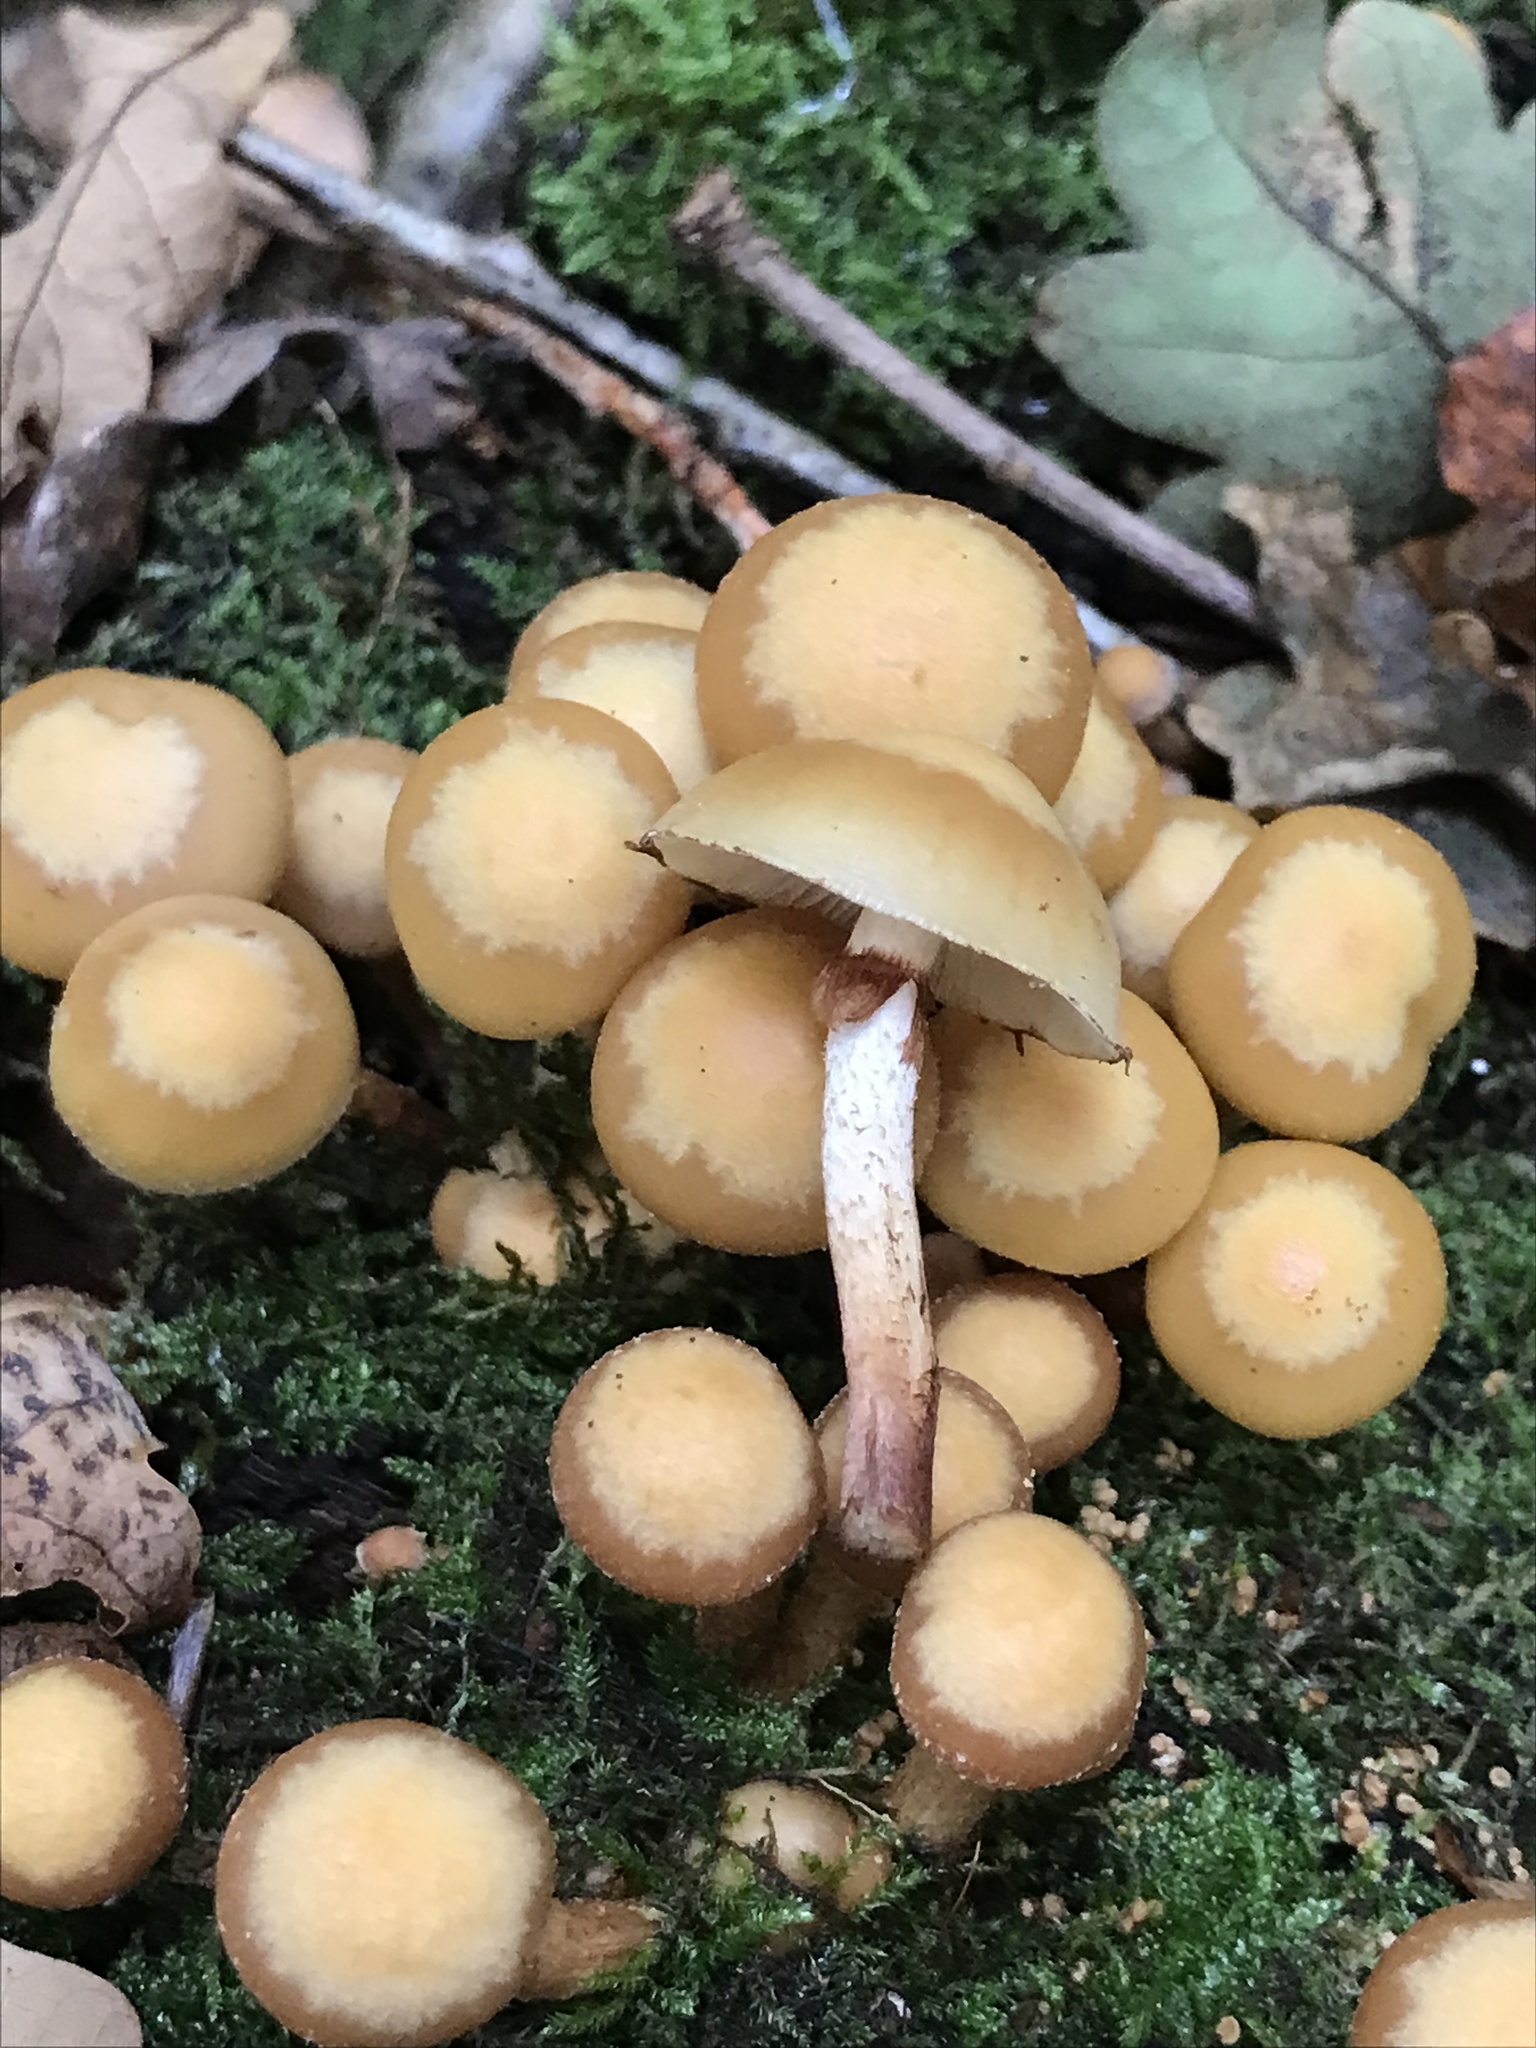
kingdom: Fungi
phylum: Basidiomycota
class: Agaricomycetes
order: Agaricales
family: Strophariaceae
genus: Kuehneromyces
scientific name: Kuehneromyces mutabilis
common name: Sheathed woodtuft
